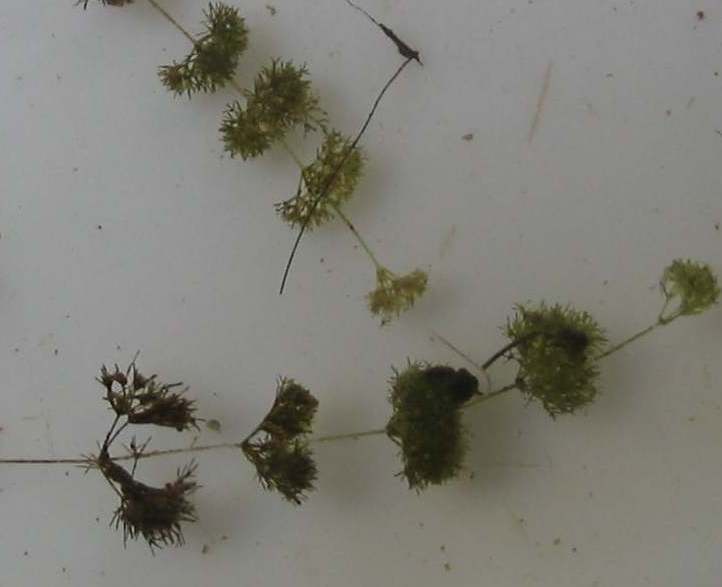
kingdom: Plantae
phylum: Charophyta
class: Charophyceae
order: Charales
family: Characeae
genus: Nitella
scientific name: Nitella tenuissima
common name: Compact stonewort
